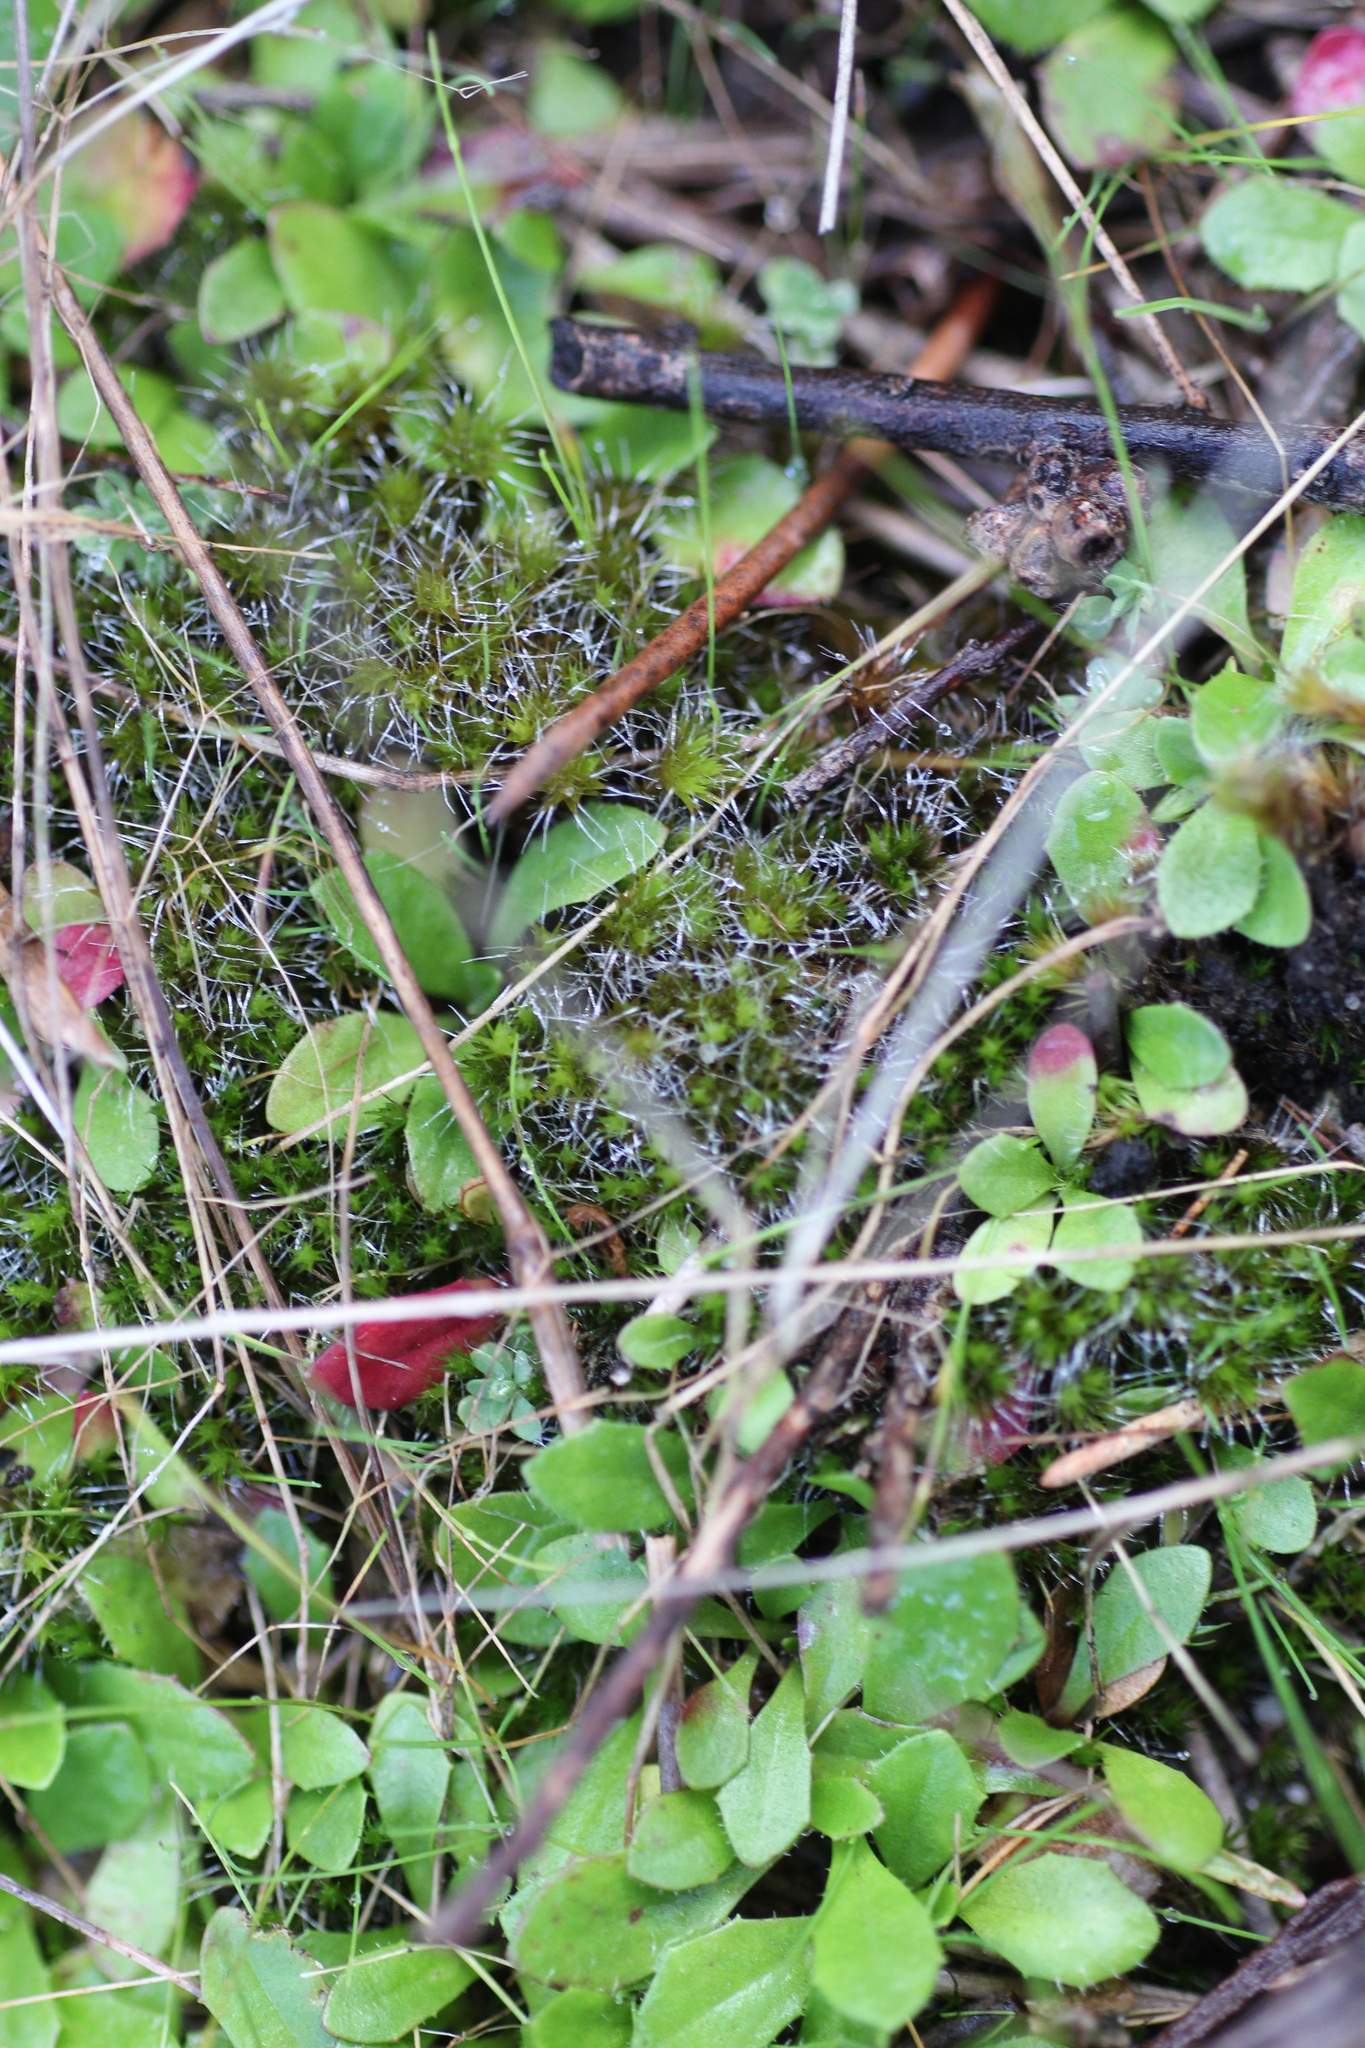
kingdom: Plantae
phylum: Bryophyta
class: Bryopsida
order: Dicranales
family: Leucobryaceae
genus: Campylopus
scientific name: Campylopus introflexus
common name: Heath star moss
